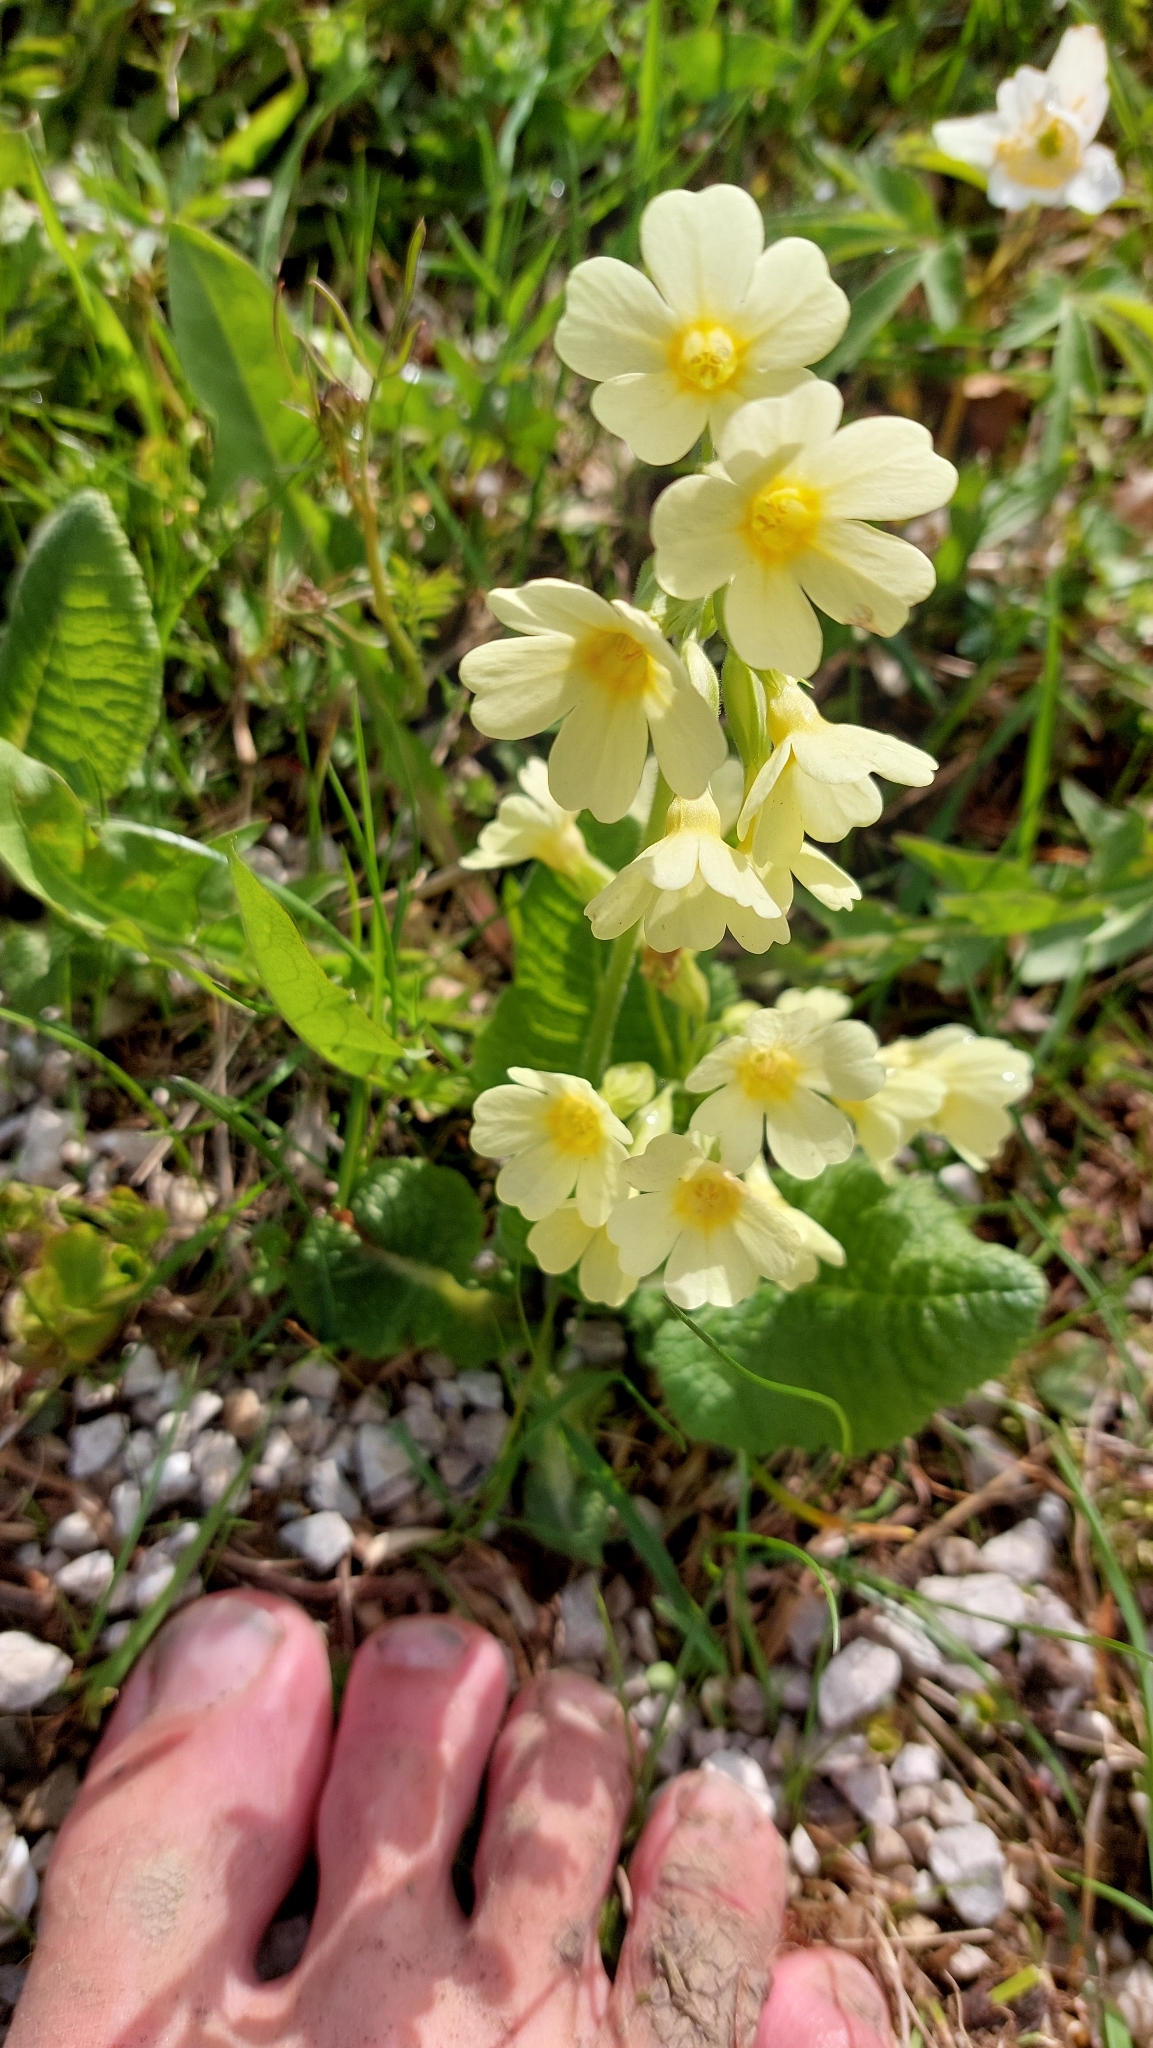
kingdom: Plantae
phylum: Tracheophyta
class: Magnoliopsida
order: Ericales
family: Primulaceae
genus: Primula
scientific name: Primula elatior
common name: Oxlip
